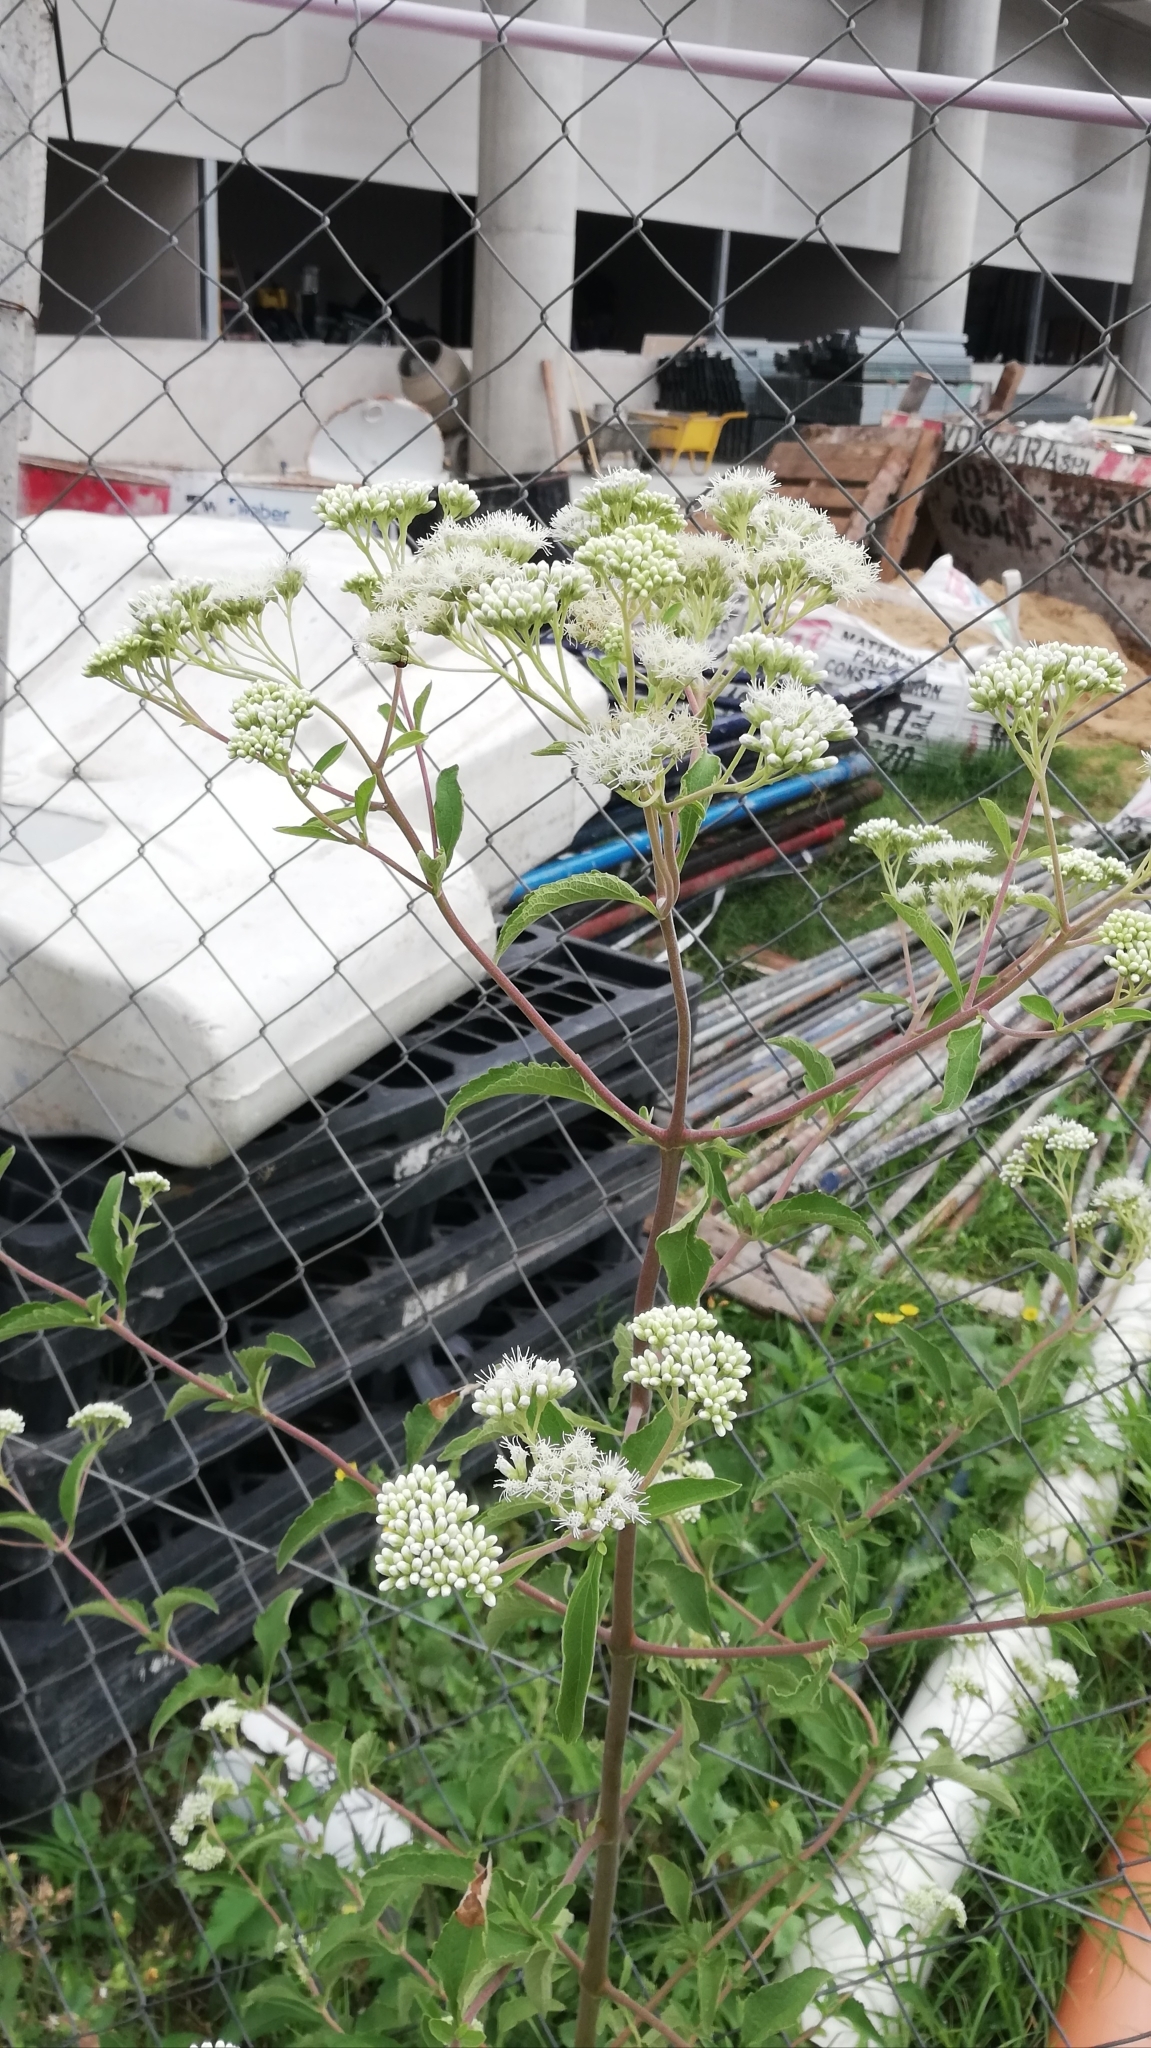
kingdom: Plantae
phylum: Tracheophyta
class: Magnoliopsida
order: Asterales
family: Asteraceae
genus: Austroeupatorium
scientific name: Austroeupatorium inulifolium
